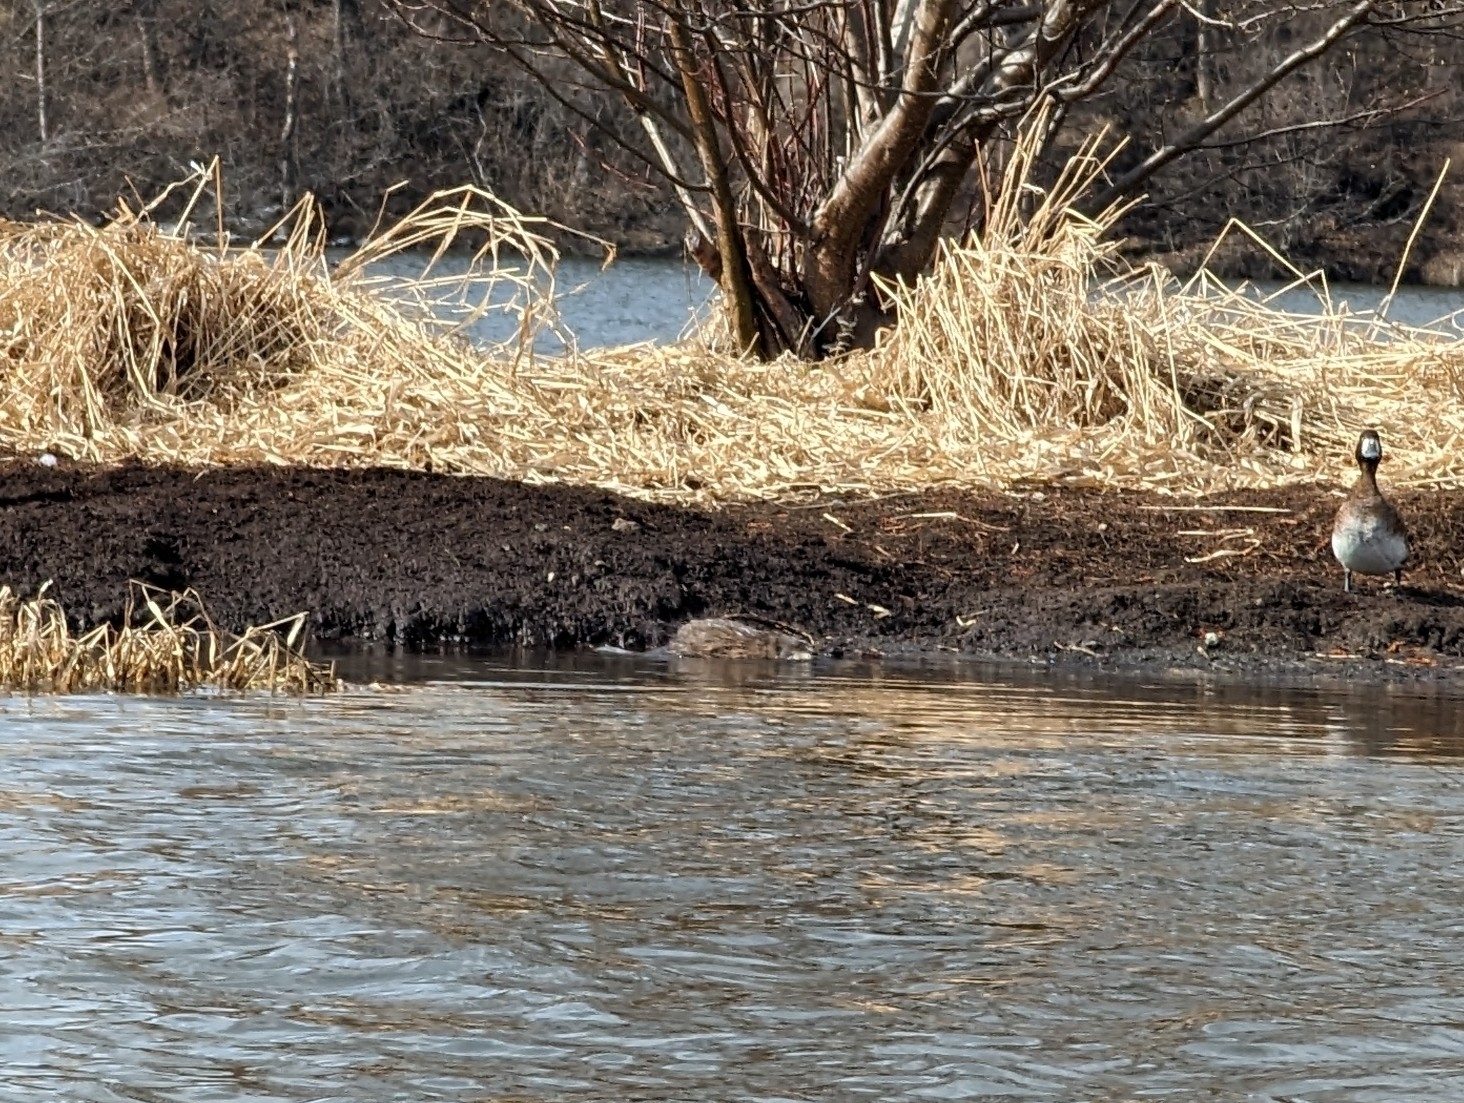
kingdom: Animalia
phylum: Chordata
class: Mammalia
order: Rodentia
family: Cricetidae
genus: Ondatra
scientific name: Ondatra zibethicus
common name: Muskrat
